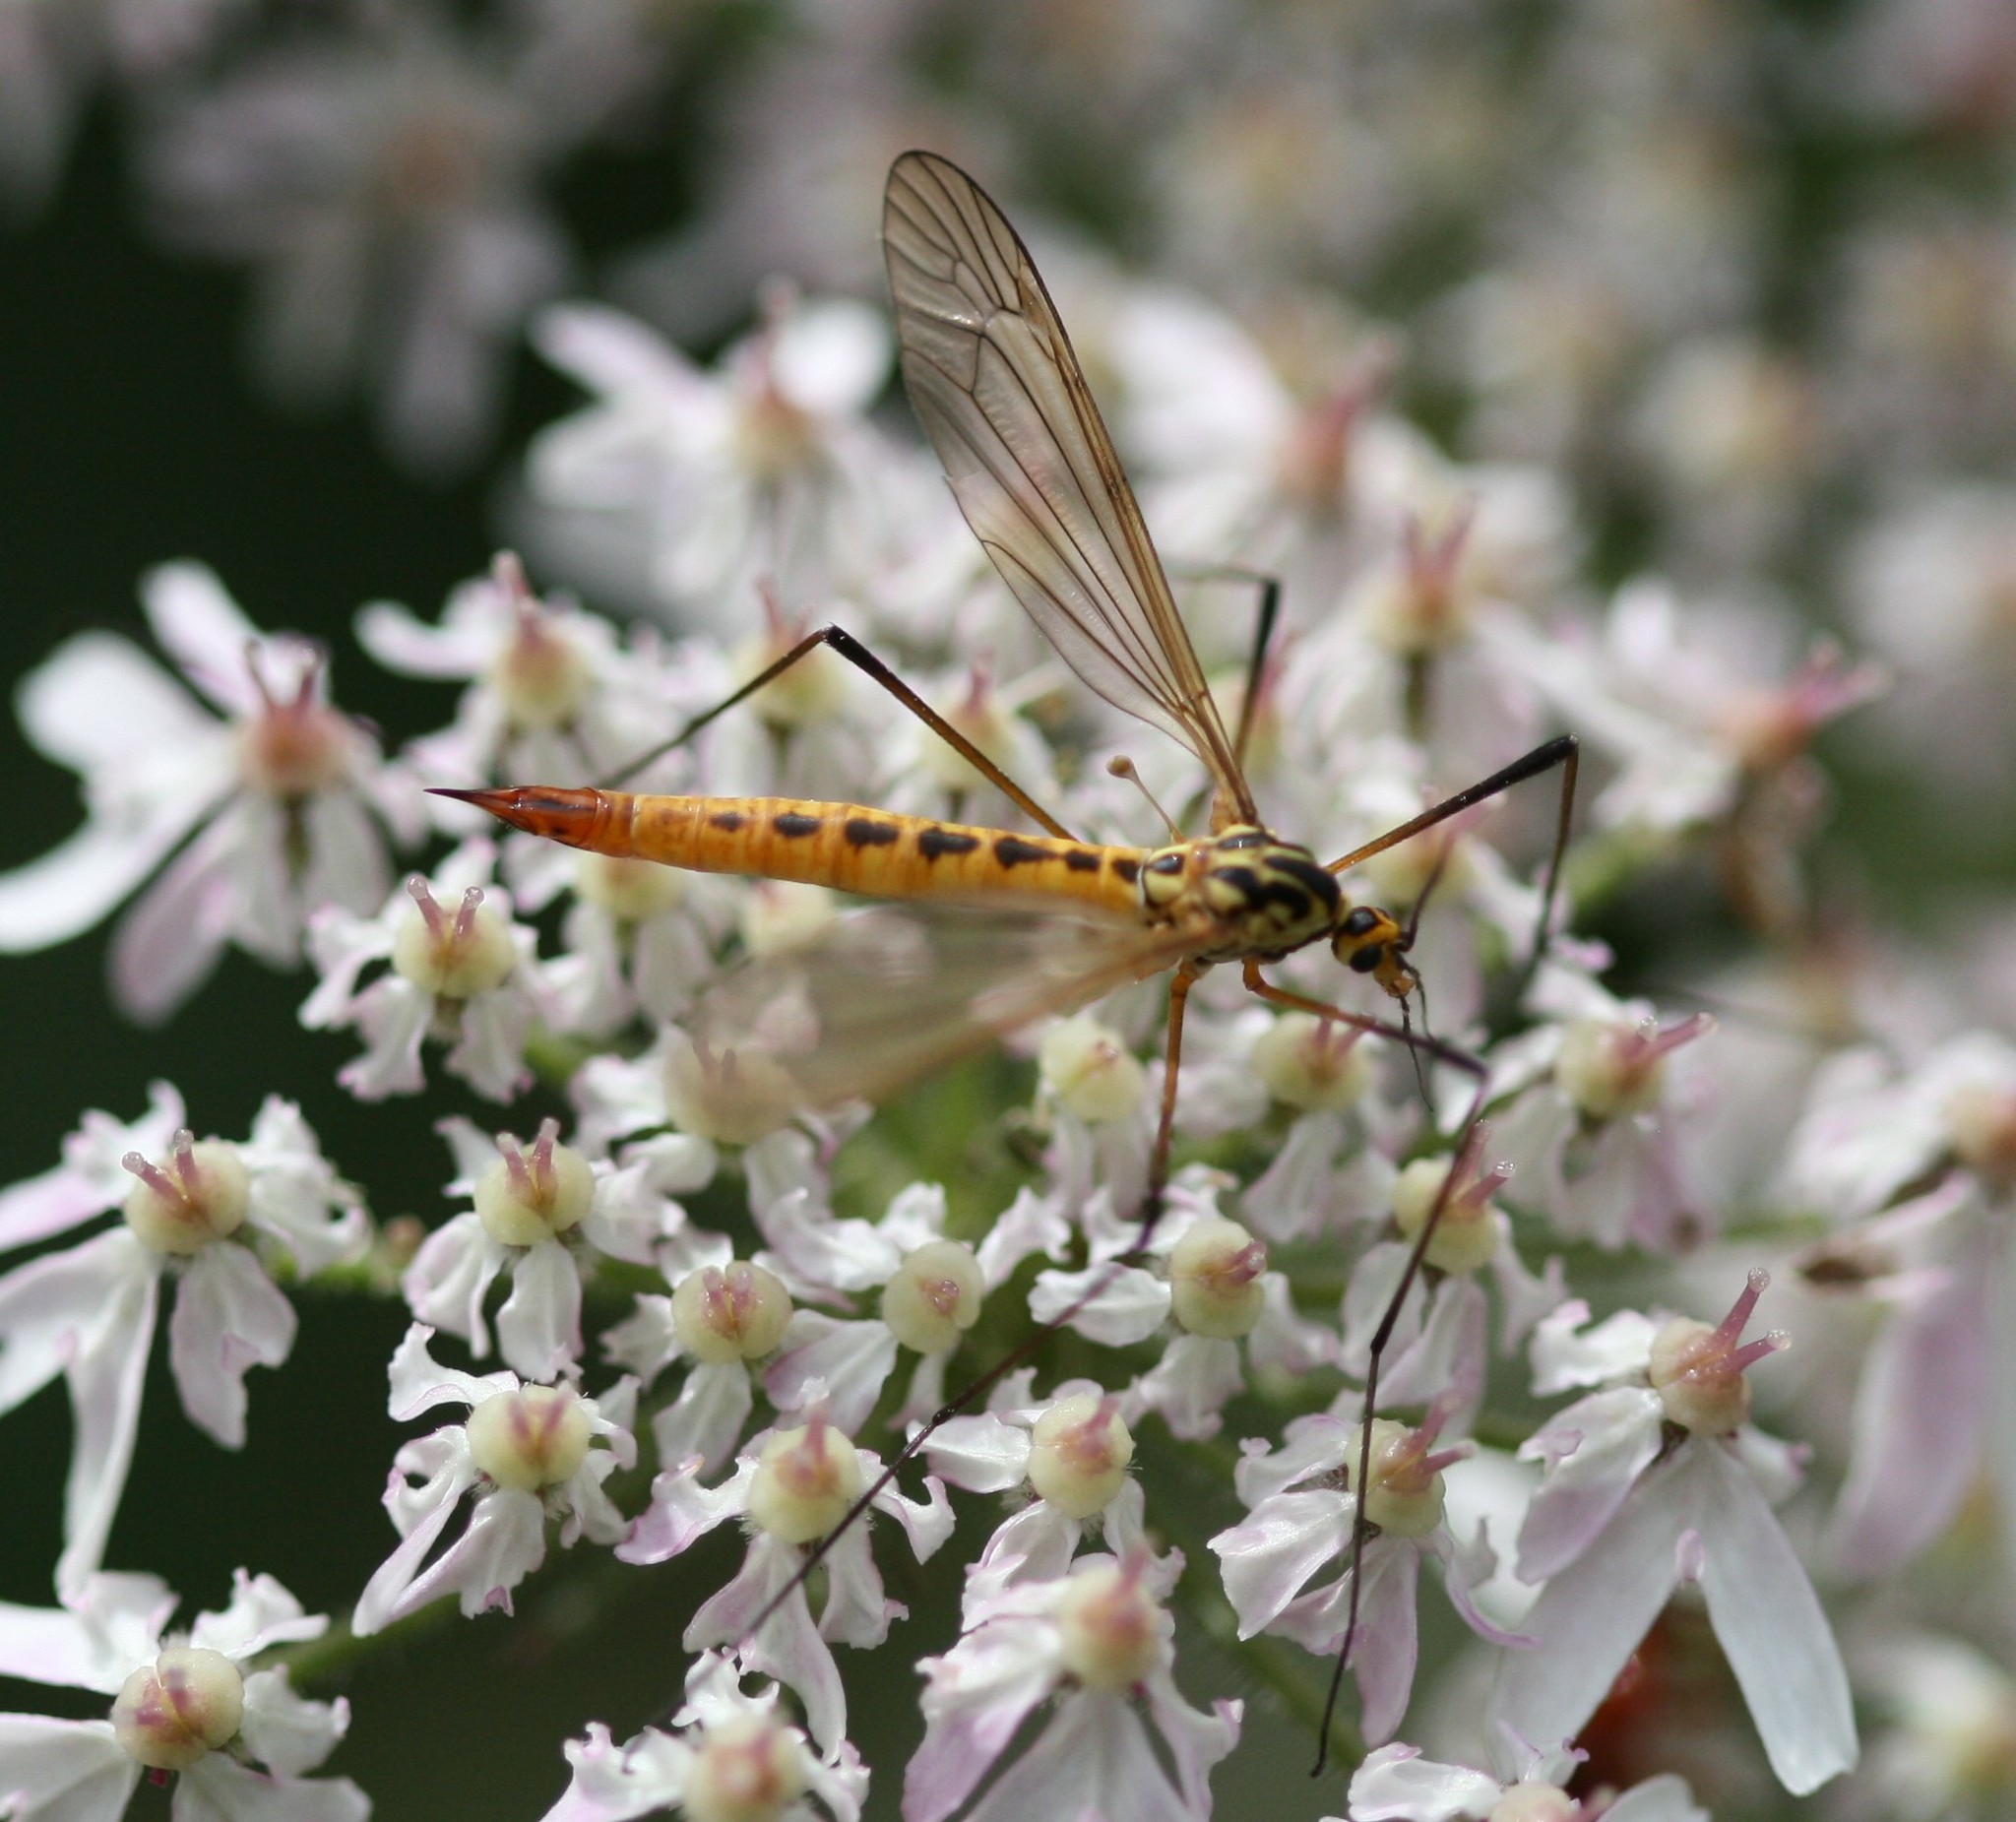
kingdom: Animalia
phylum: Arthropoda
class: Insecta
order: Diptera
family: Tipulidae
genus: Nephrotoma
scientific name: Nephrotoma flavescens
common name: Tiger cranefly
